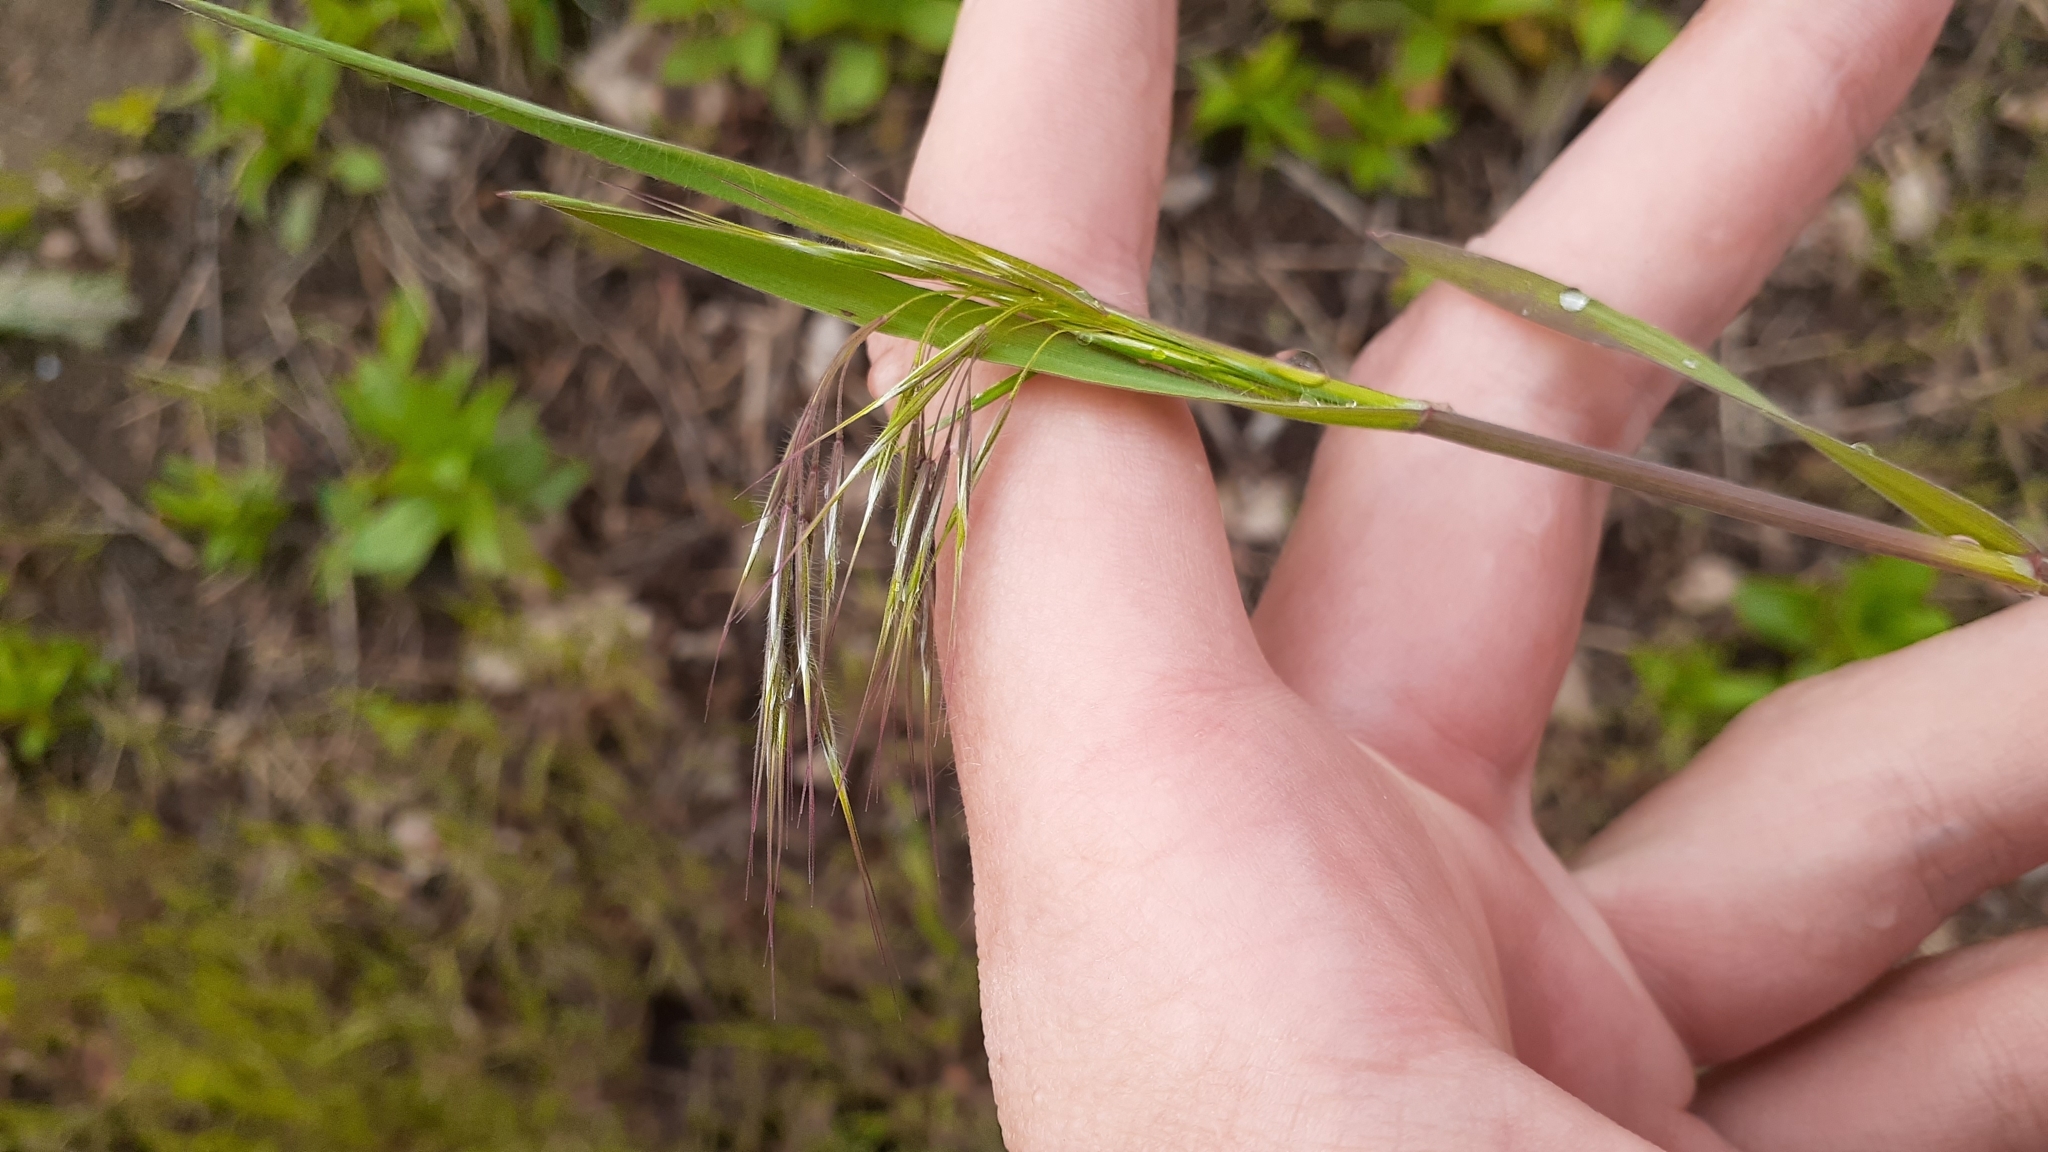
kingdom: Plantae
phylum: Tracheophyta
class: Liliopsida
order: Poales
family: Poaceae
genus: Bromus
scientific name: Bromus tectorum
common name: Cheatgrass
